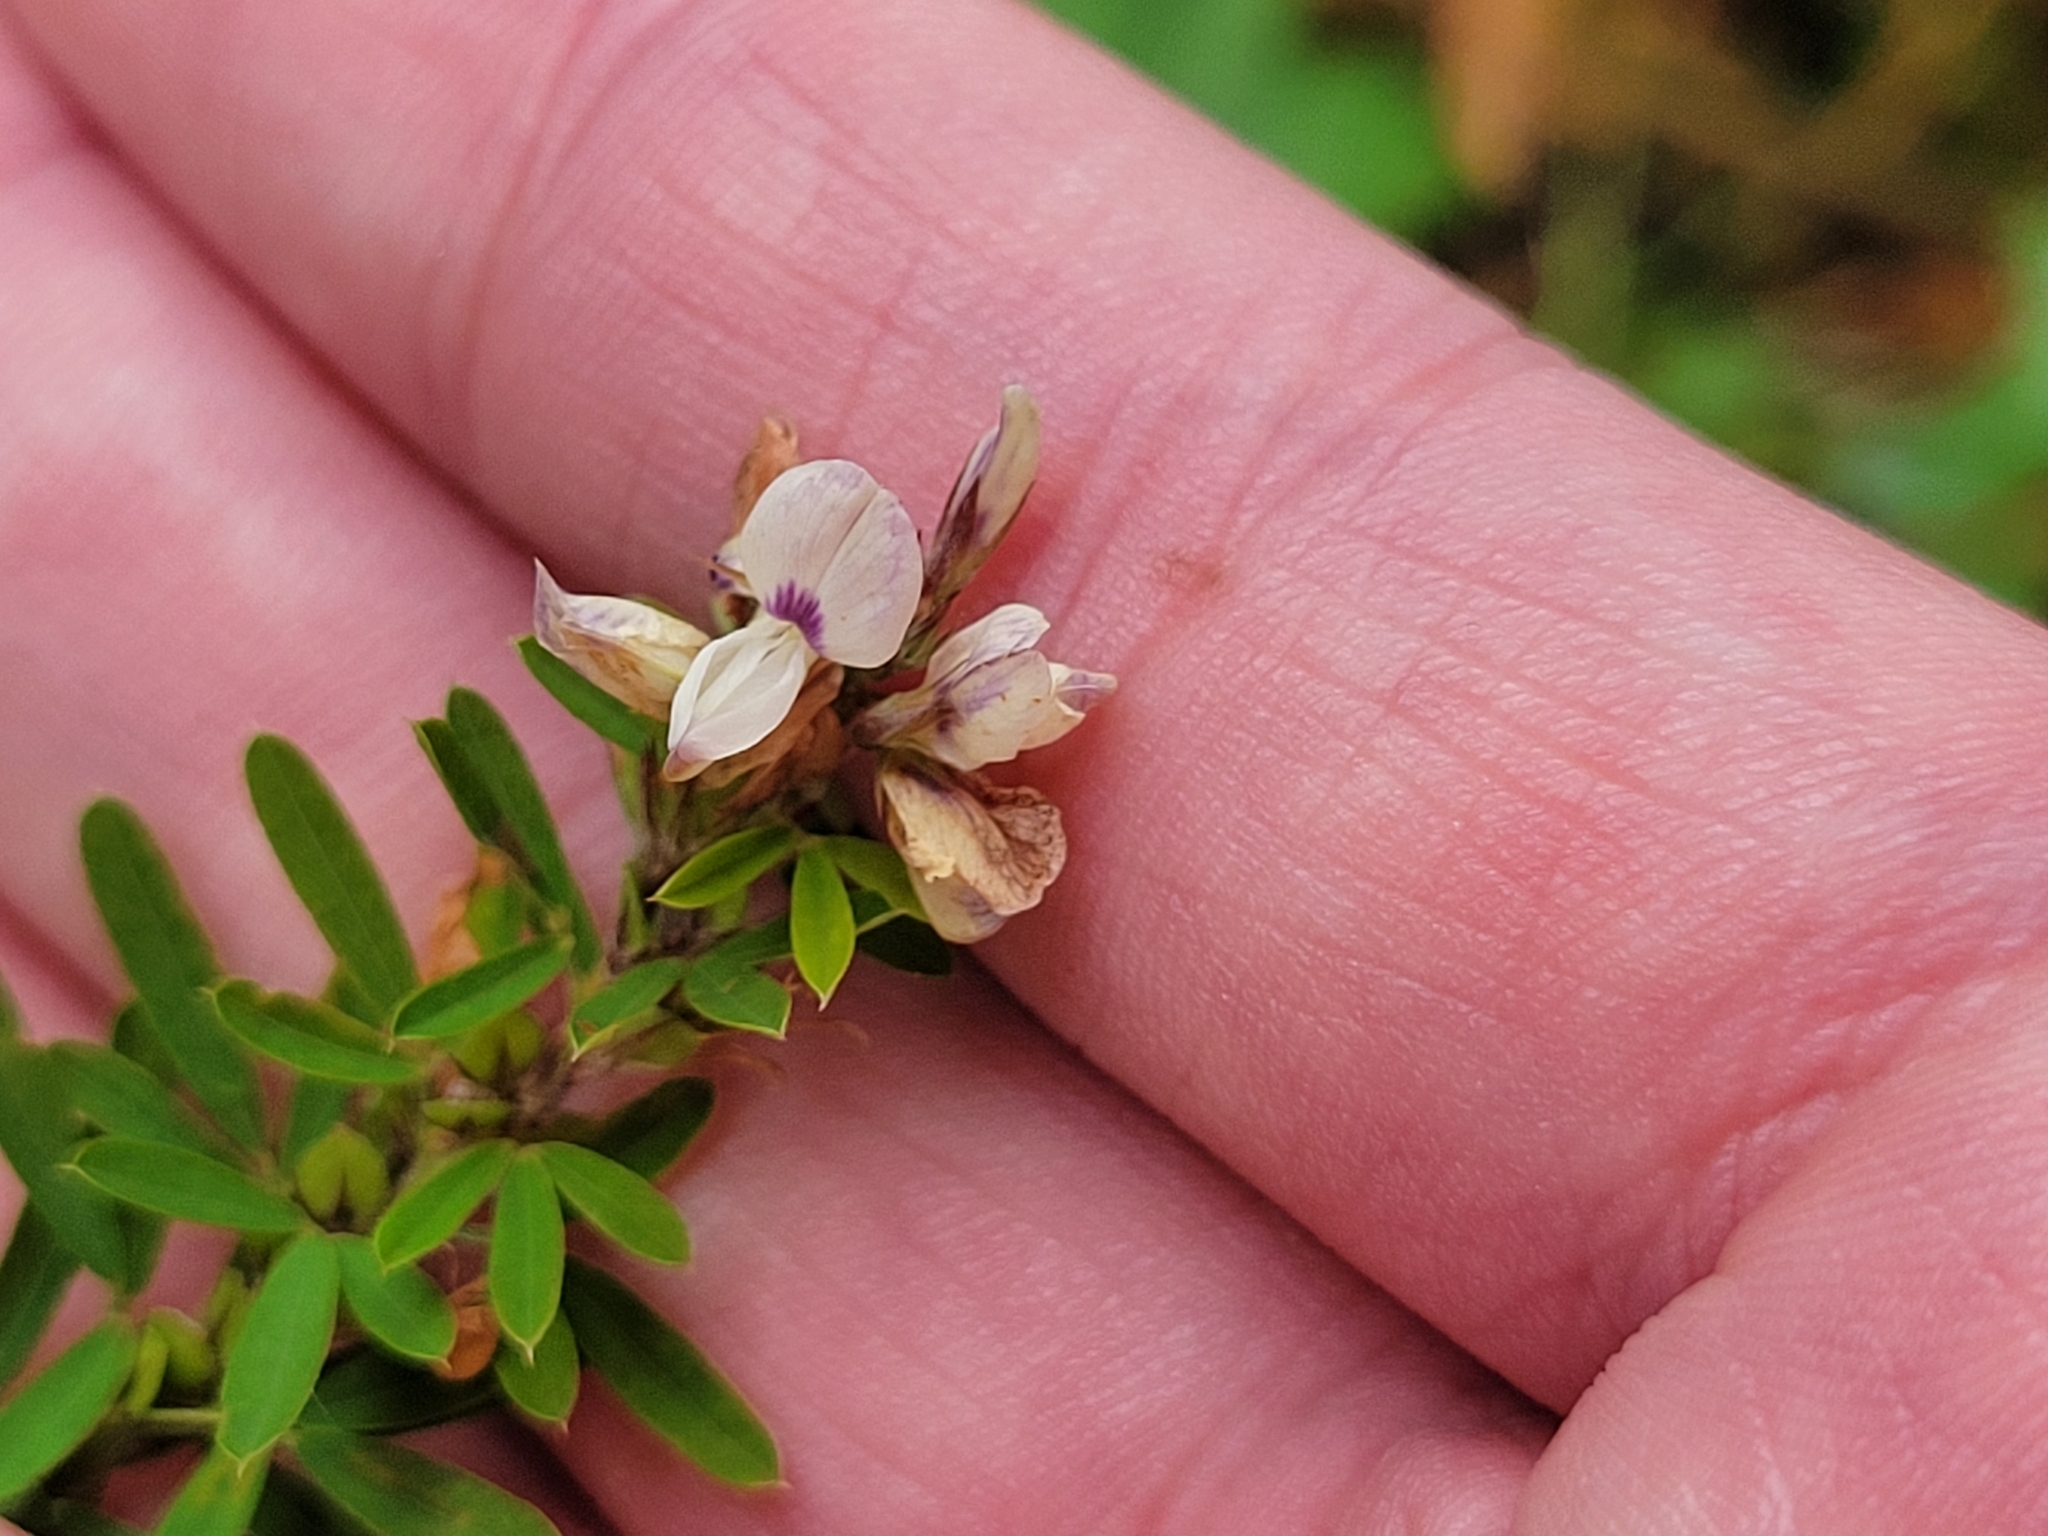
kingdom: Plantae
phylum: Tracheophyta
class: Magnoliopsida
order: Fabales
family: Fabaceae
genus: Lespedeza
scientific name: Lespedeza cuneata
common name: Chinese bush-clover
